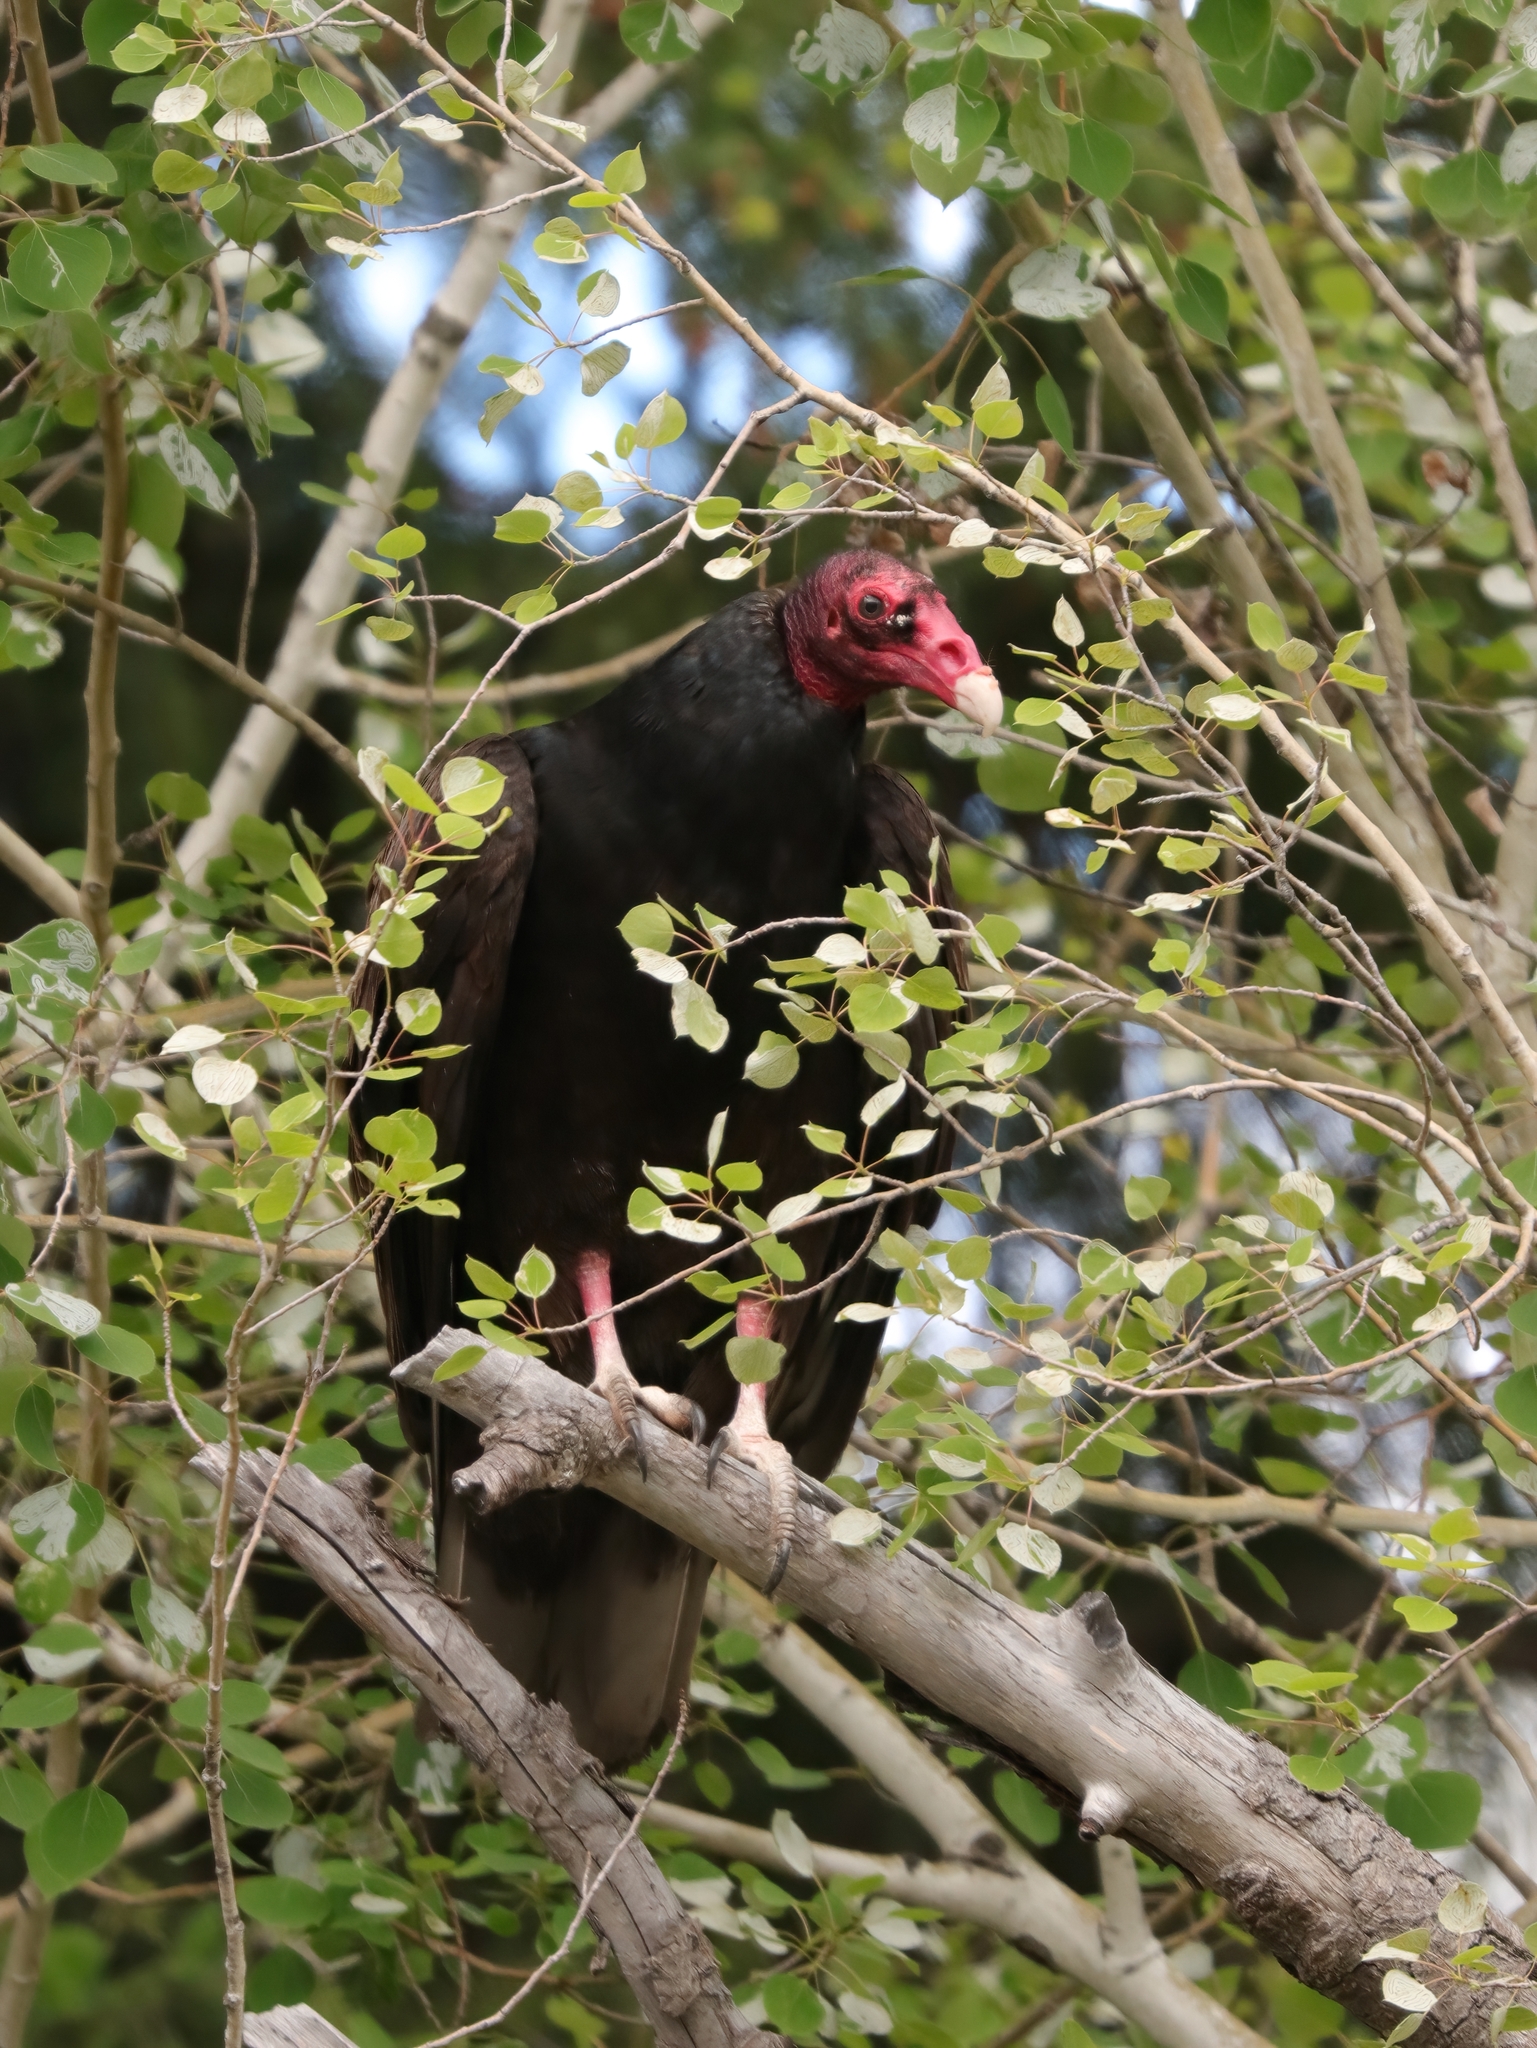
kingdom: Animalia
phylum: Chordata
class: Aves
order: Accipitriformes
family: Cathartidae
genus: Cathartes
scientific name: Cathartes aura
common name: Turkey vulture
